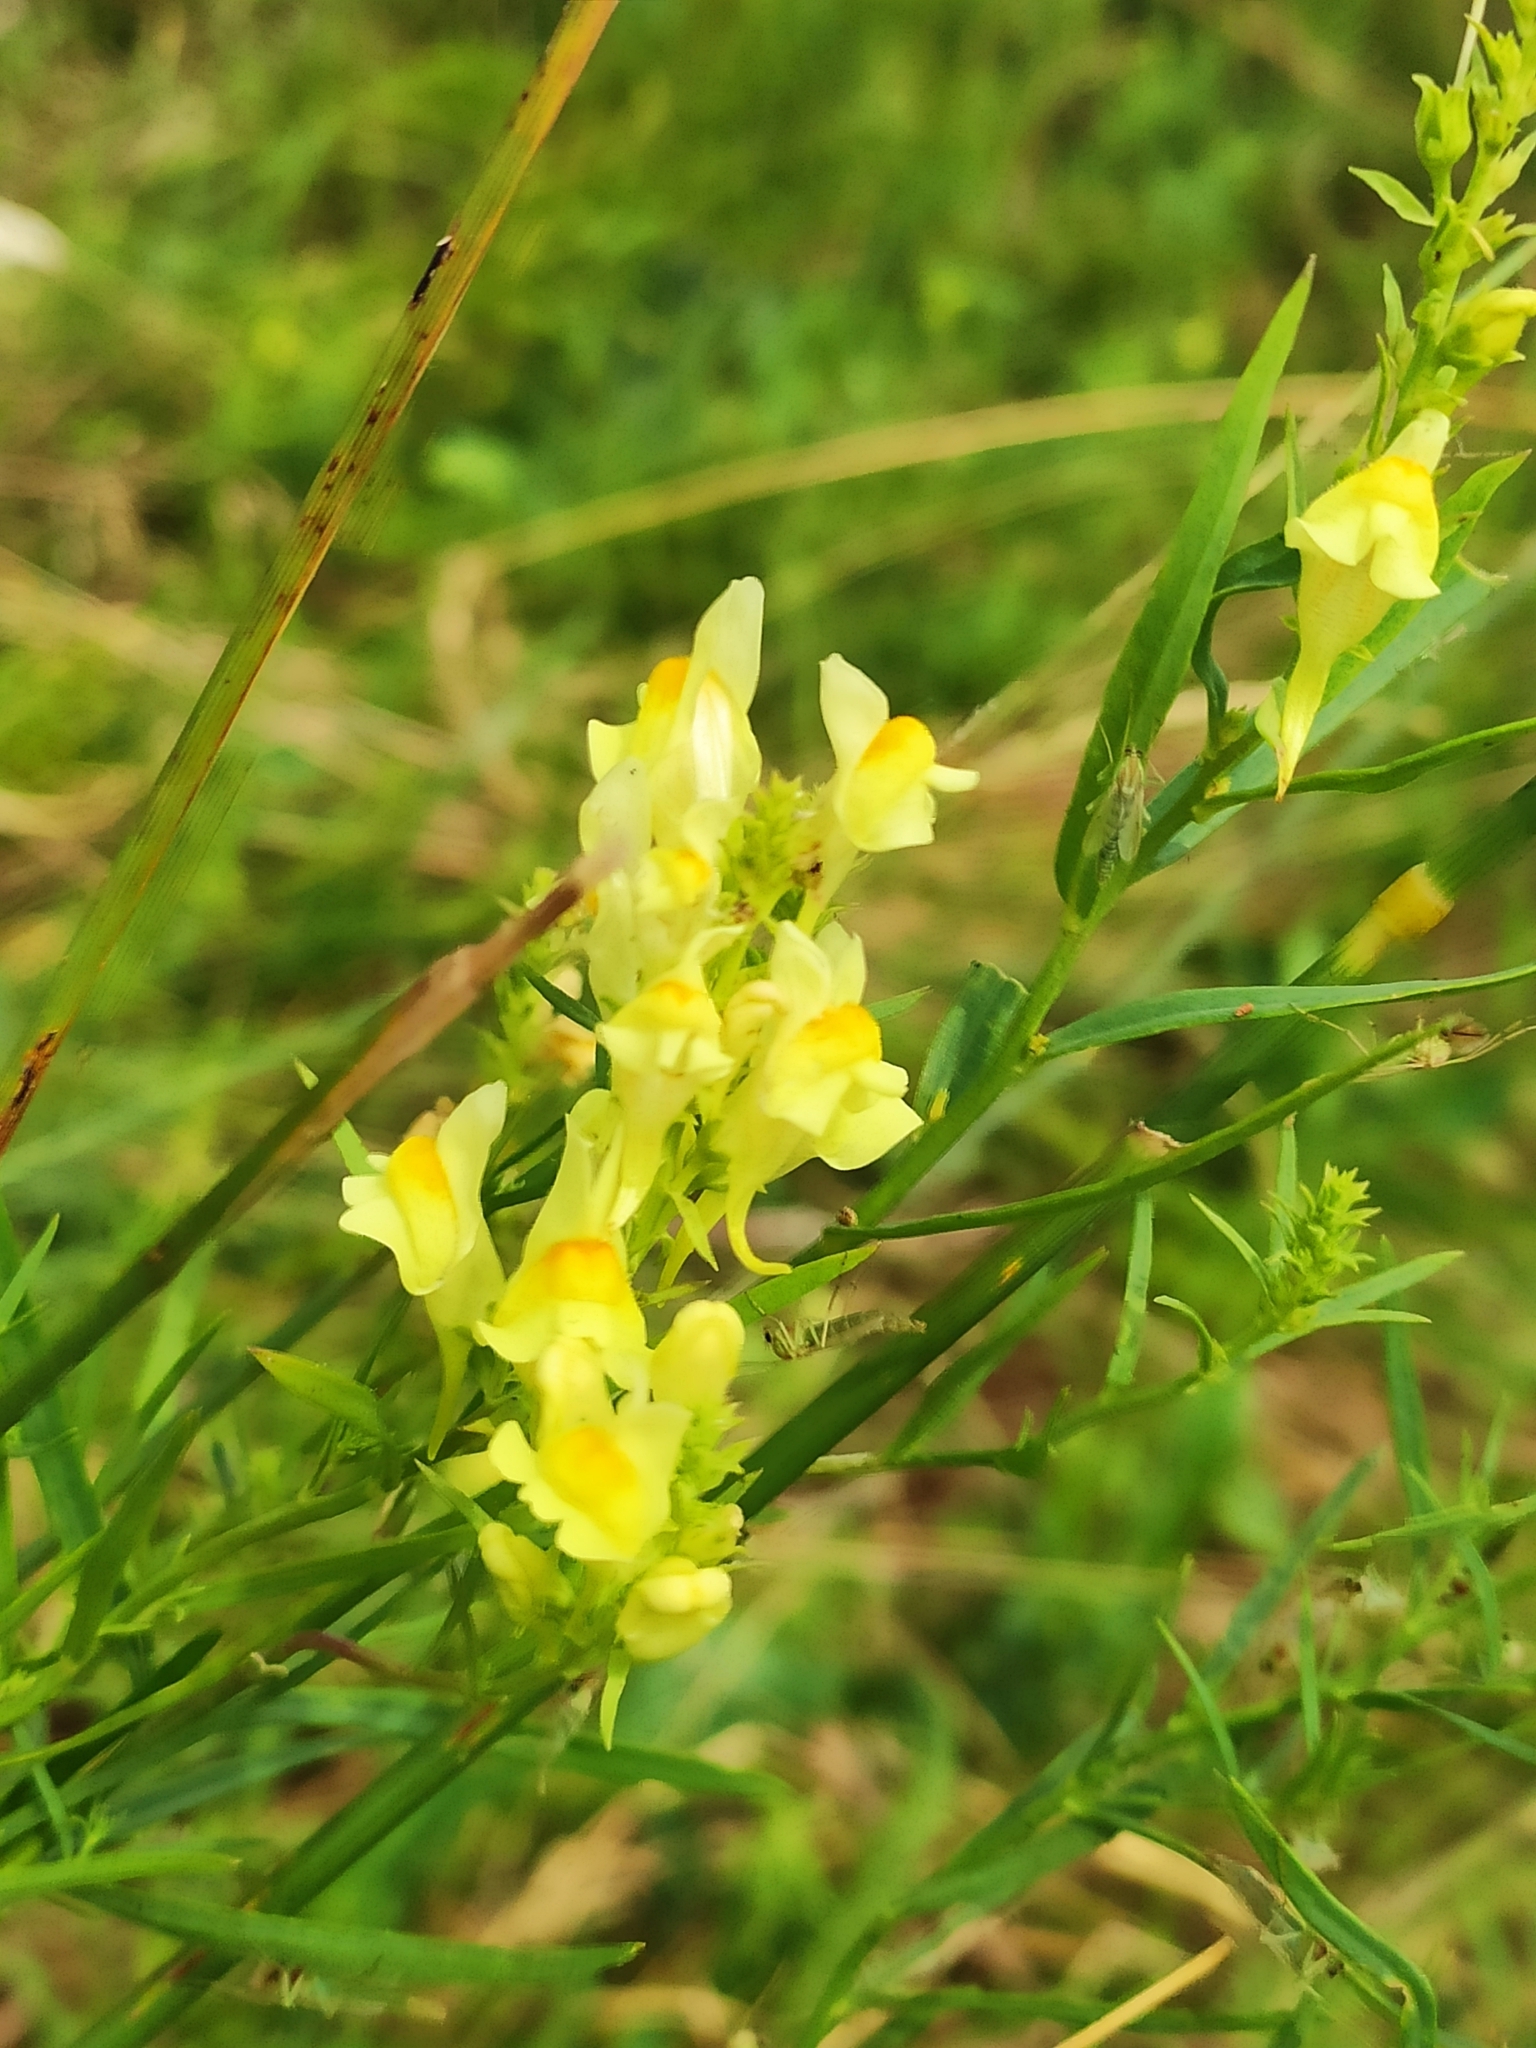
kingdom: Plantae
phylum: Tracheophyta
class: Magnoliopsida
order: Lamiales
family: Plantaginaceae
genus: Linaria
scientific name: Linaria vulgaris
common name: Butter and eggs
